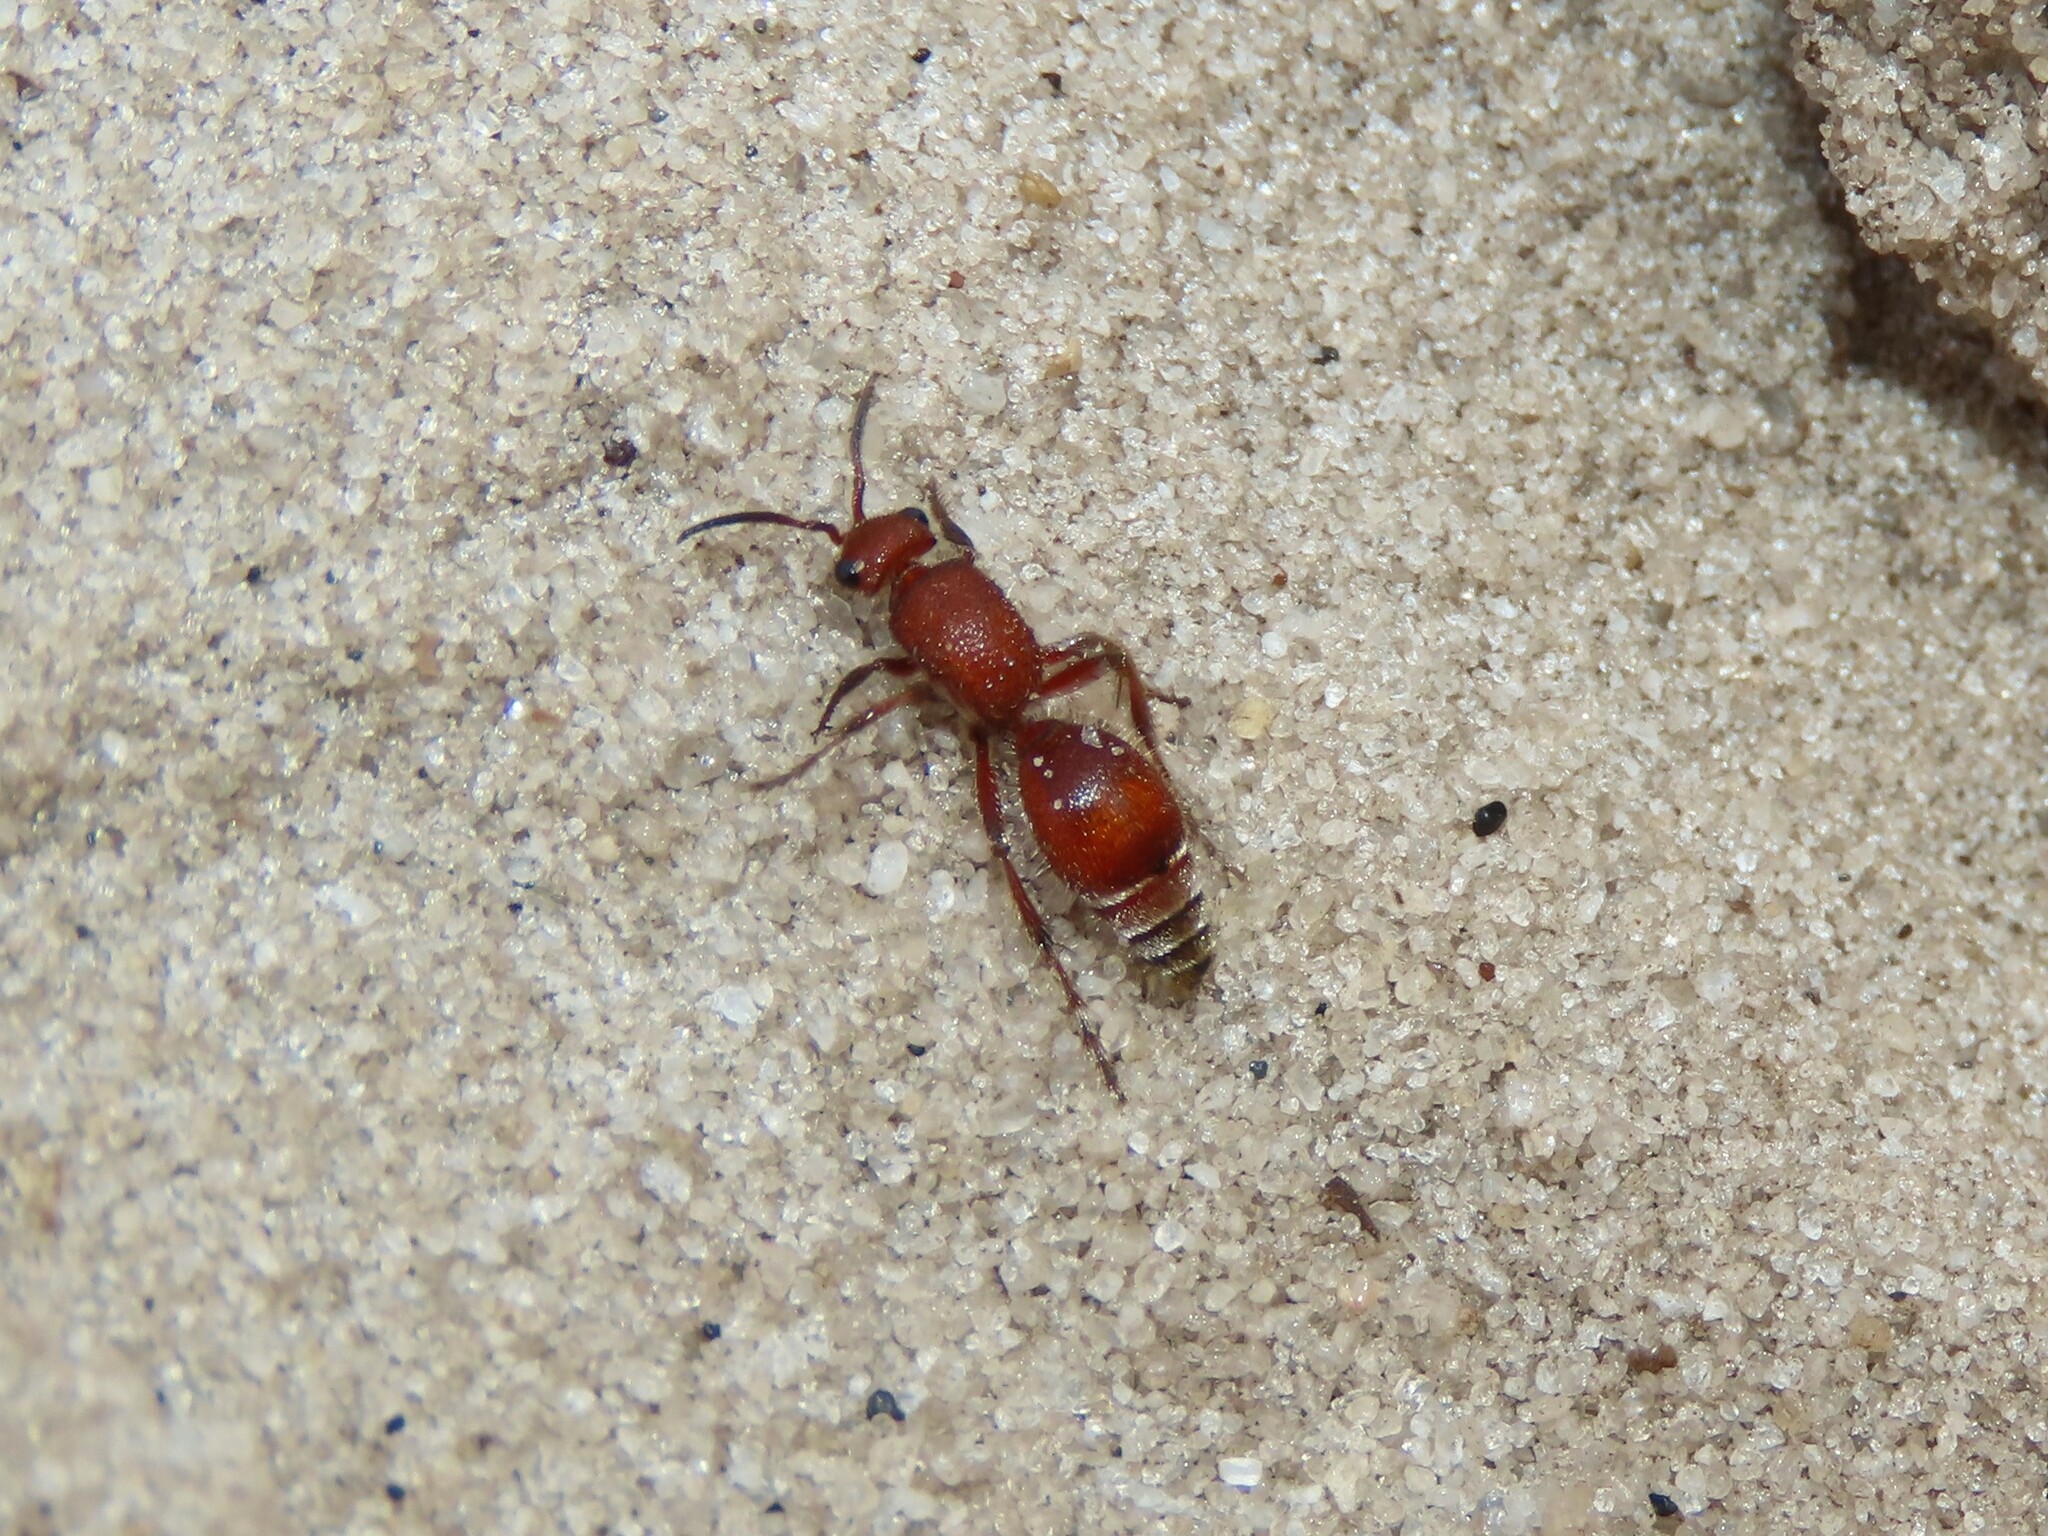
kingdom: Animalia
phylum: Arthropoda
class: Insecta
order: Hymenoptera
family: Mutillidae
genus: Dasymutilla
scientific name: Dasymutilla arenerronea
